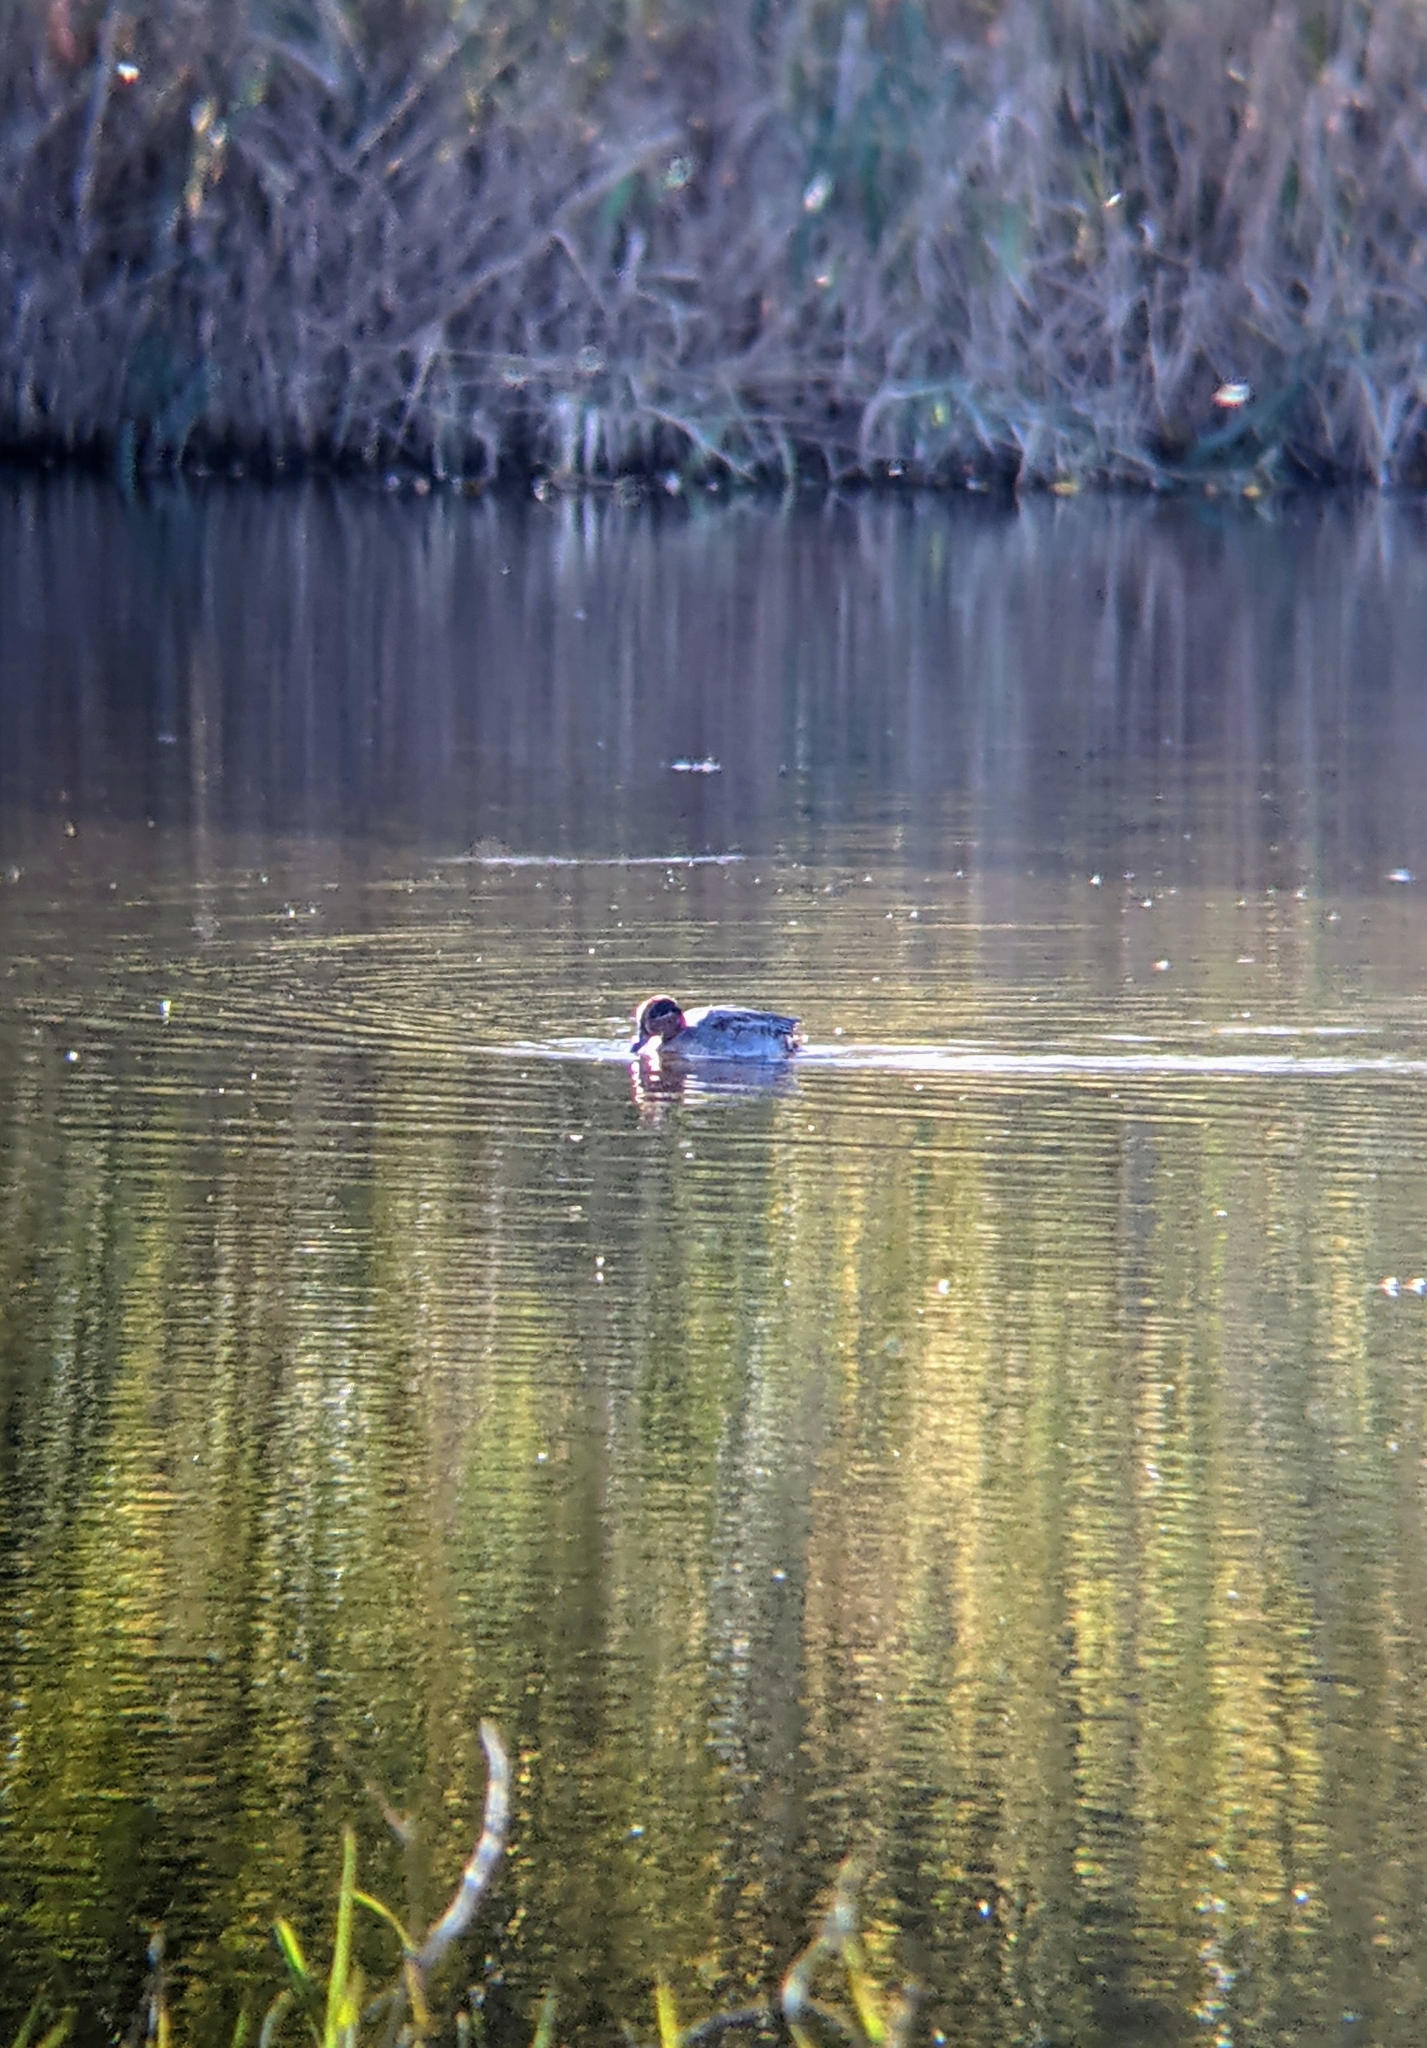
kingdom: Animalia
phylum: Chordata
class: Aves
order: Anseriformes
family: Anatidae
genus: Anas
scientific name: Anas crecca
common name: Eurasian teal
